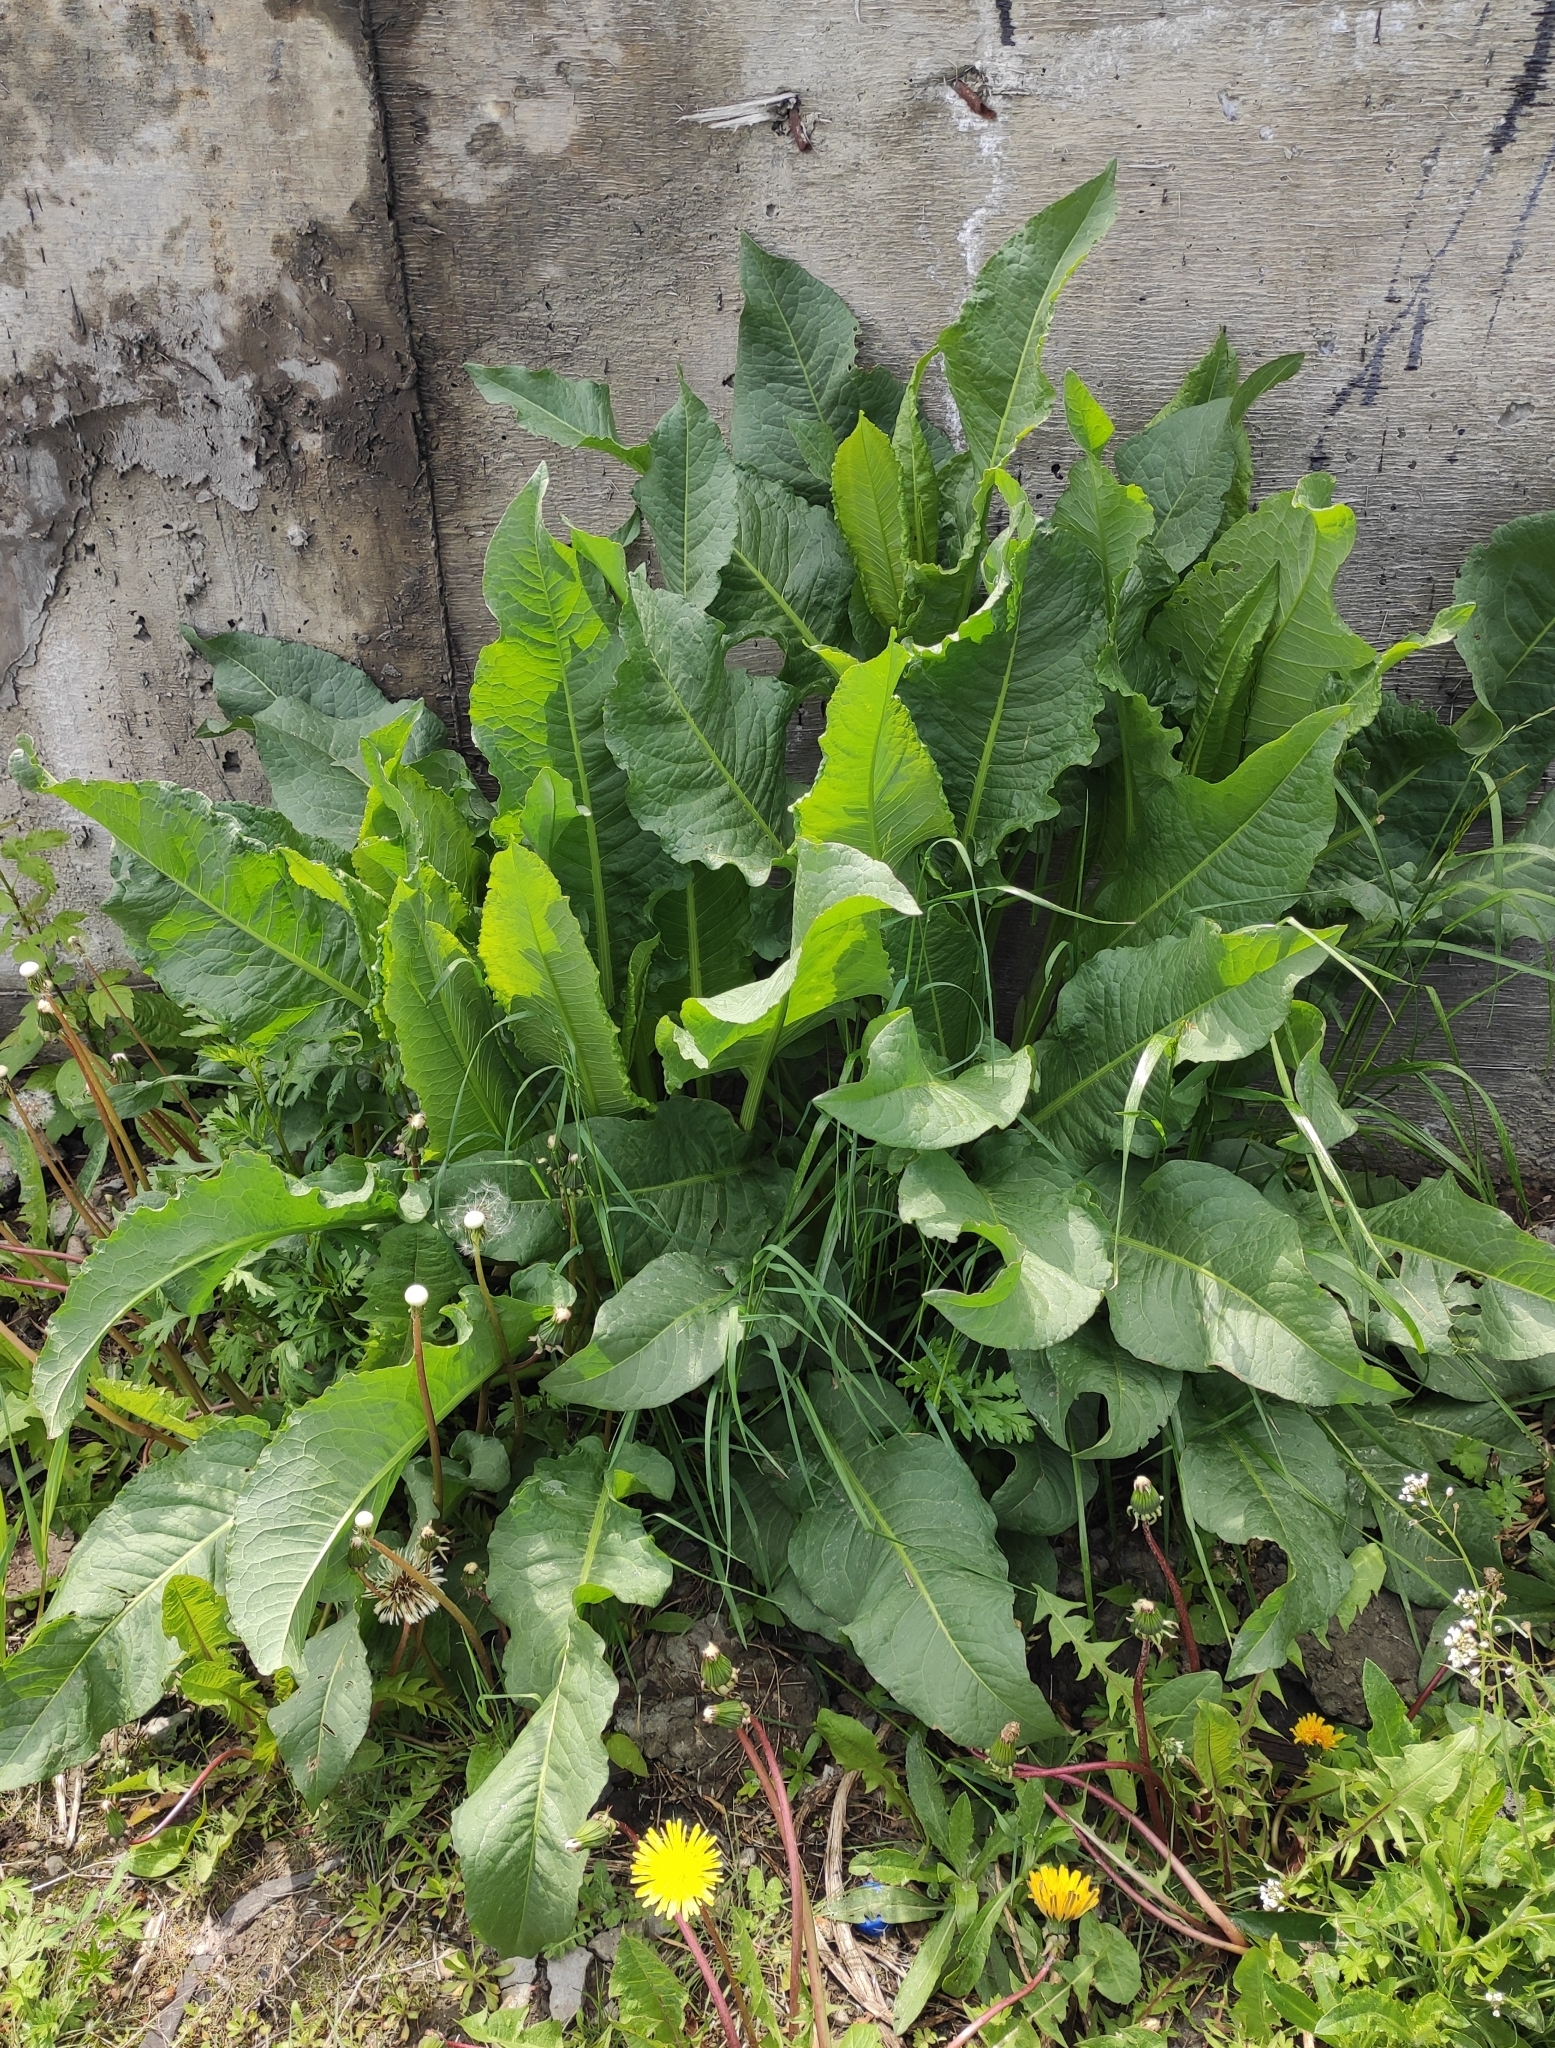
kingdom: Plantae
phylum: Tracheophyta
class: Magnoliopsida
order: Brassicales
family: Brassicaceae
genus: Armoracia
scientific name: Armoracia rusticana
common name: Horseradish
